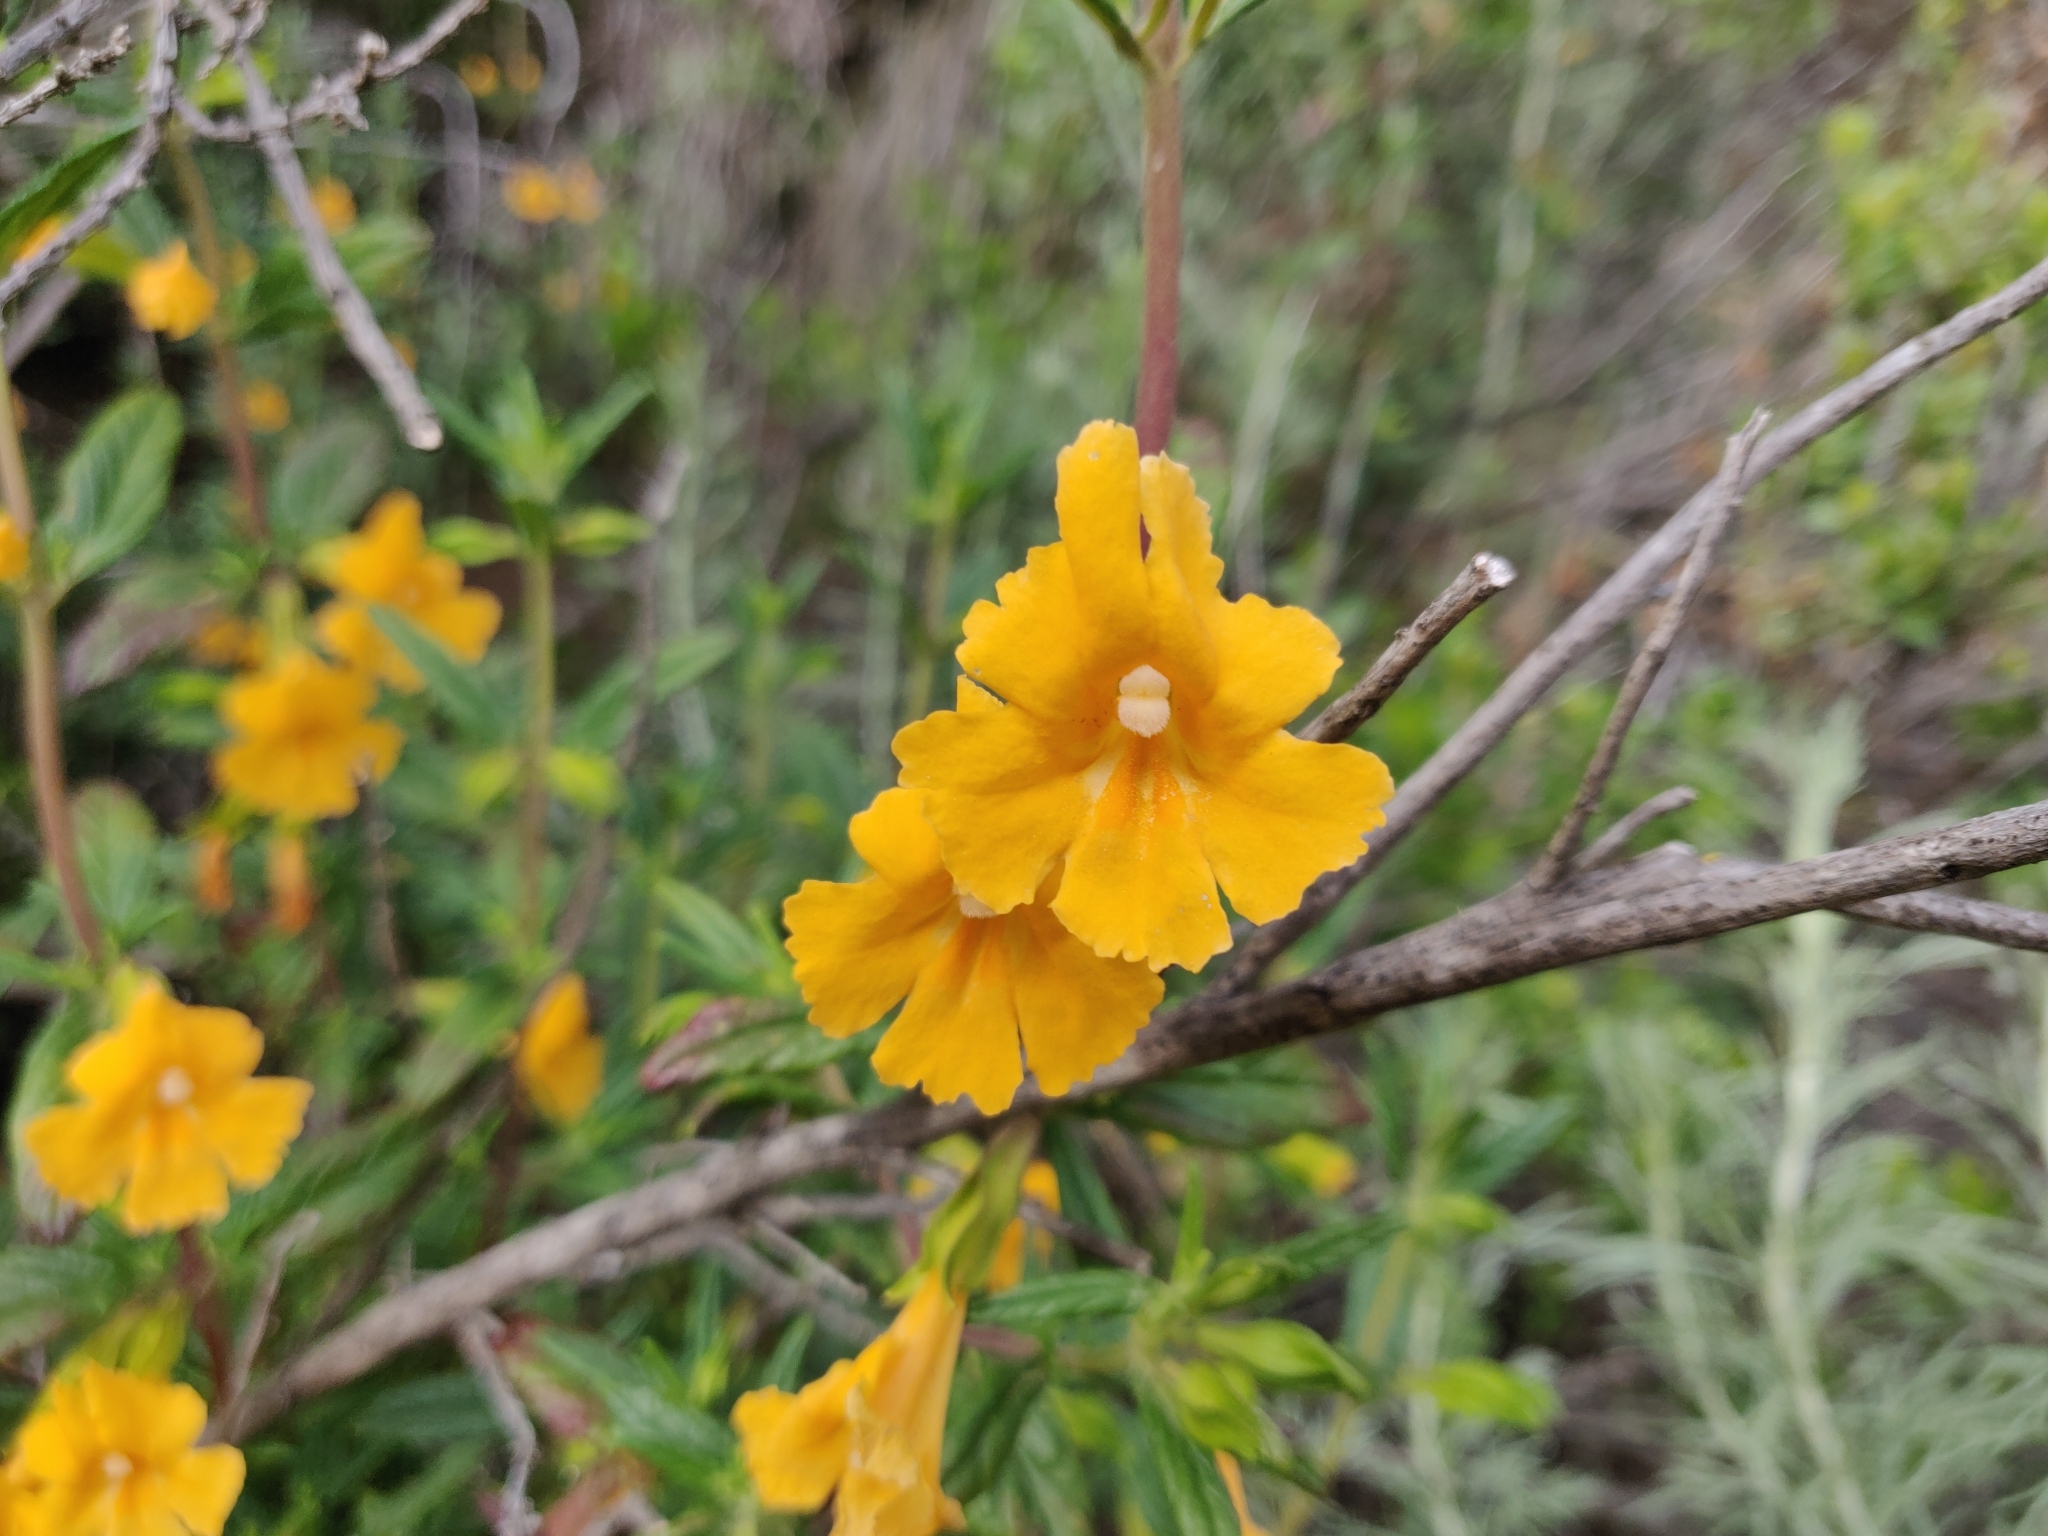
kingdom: Plantae
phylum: Tracheophyta
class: Magnoliopsida
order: Lamiales
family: Phrymaceae
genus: Diplacus
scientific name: Diplacus aurantiacus
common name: Bush monkey-flower
